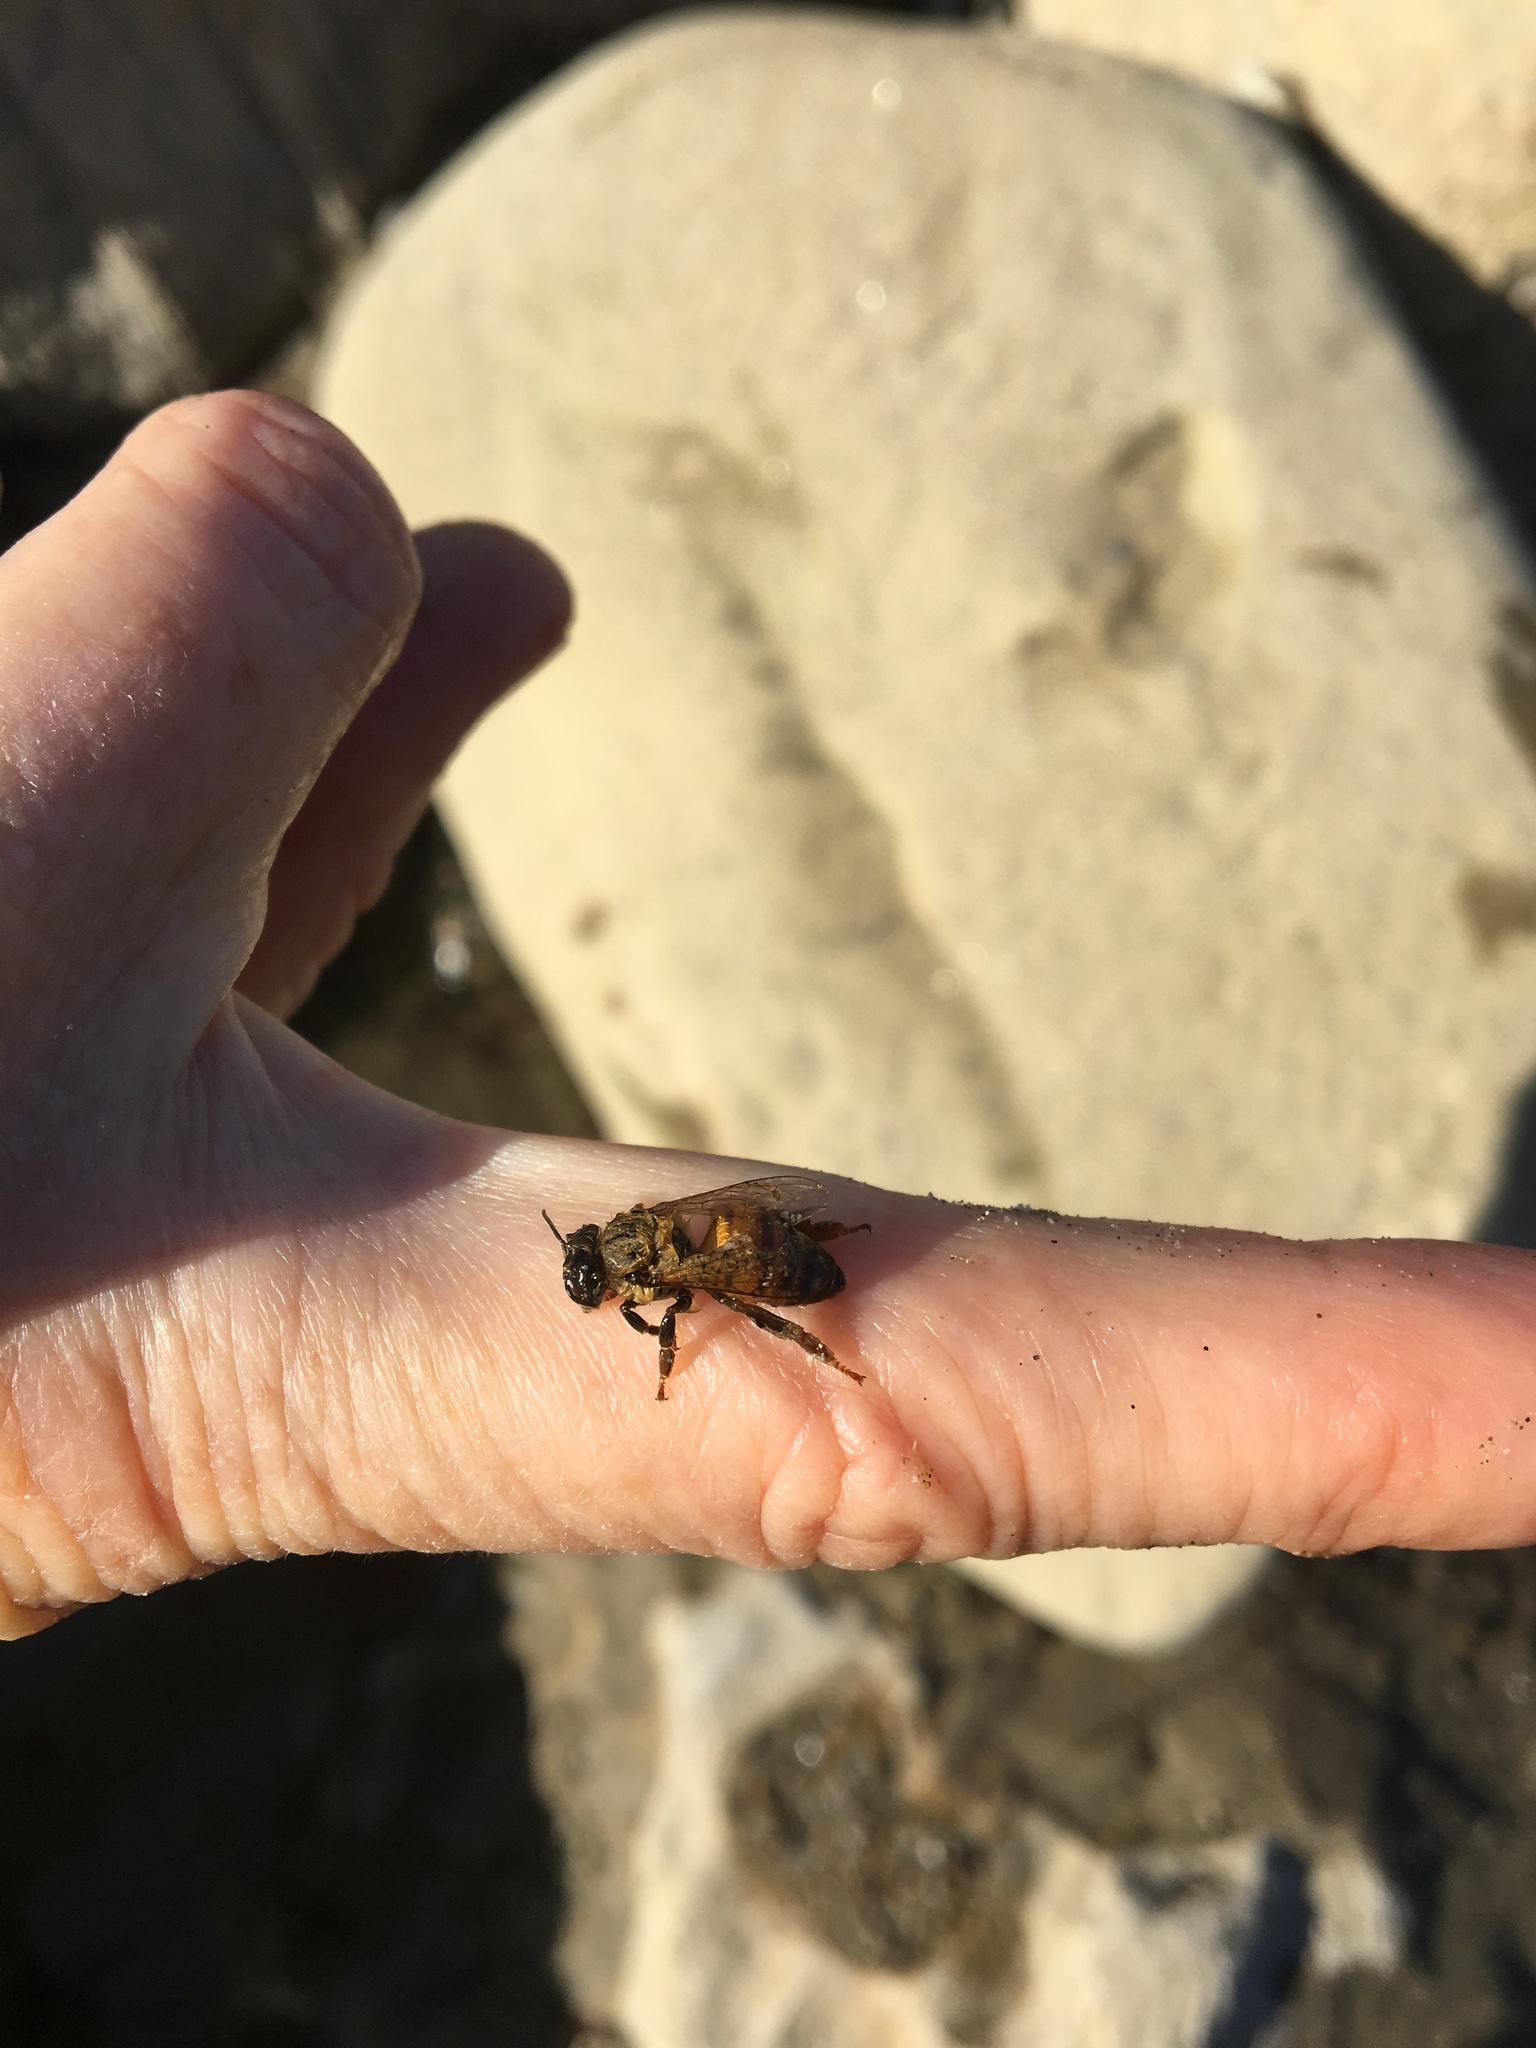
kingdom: Animalia
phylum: Arthropoda
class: Insecta
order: Hymenoptera
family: Apidae
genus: Apis
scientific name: Apis mellifera
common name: Honey bee
